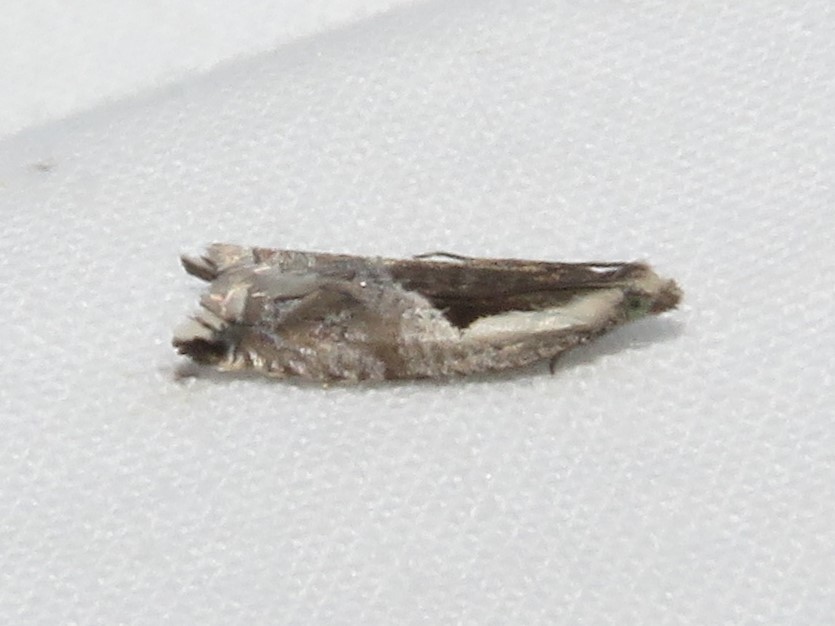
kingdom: Animalia
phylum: Arthropoda
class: Insecta
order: Lepidoptera
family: Tortricidae
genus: Ancylis
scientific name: Ancylis sheppardana
